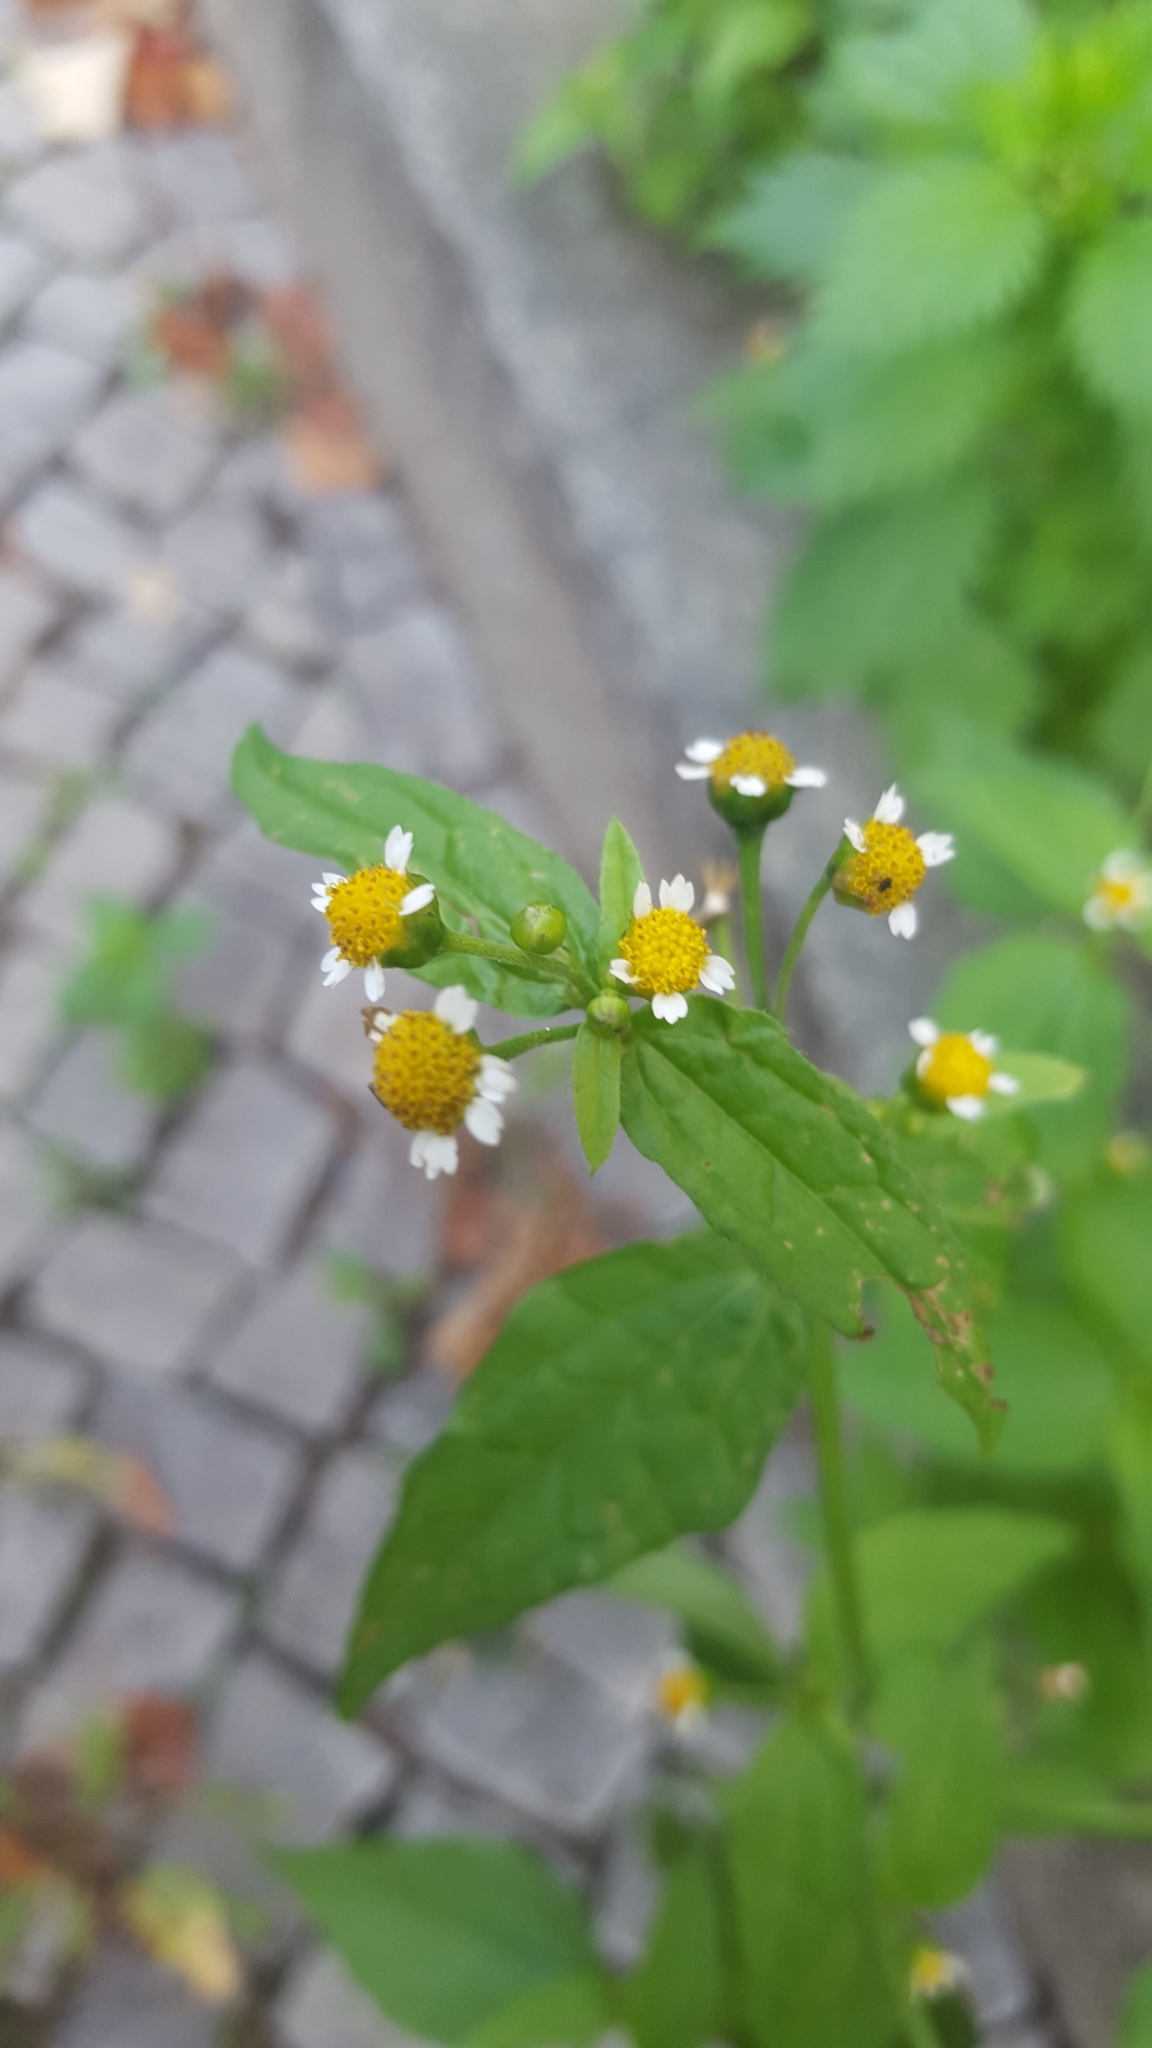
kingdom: Plantae
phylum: Tracheophyta
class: Magnoliopsida
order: Asterales
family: Asteraceae
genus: Galinsoga
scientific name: Galinsoga parviflora
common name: Gallant soldier
